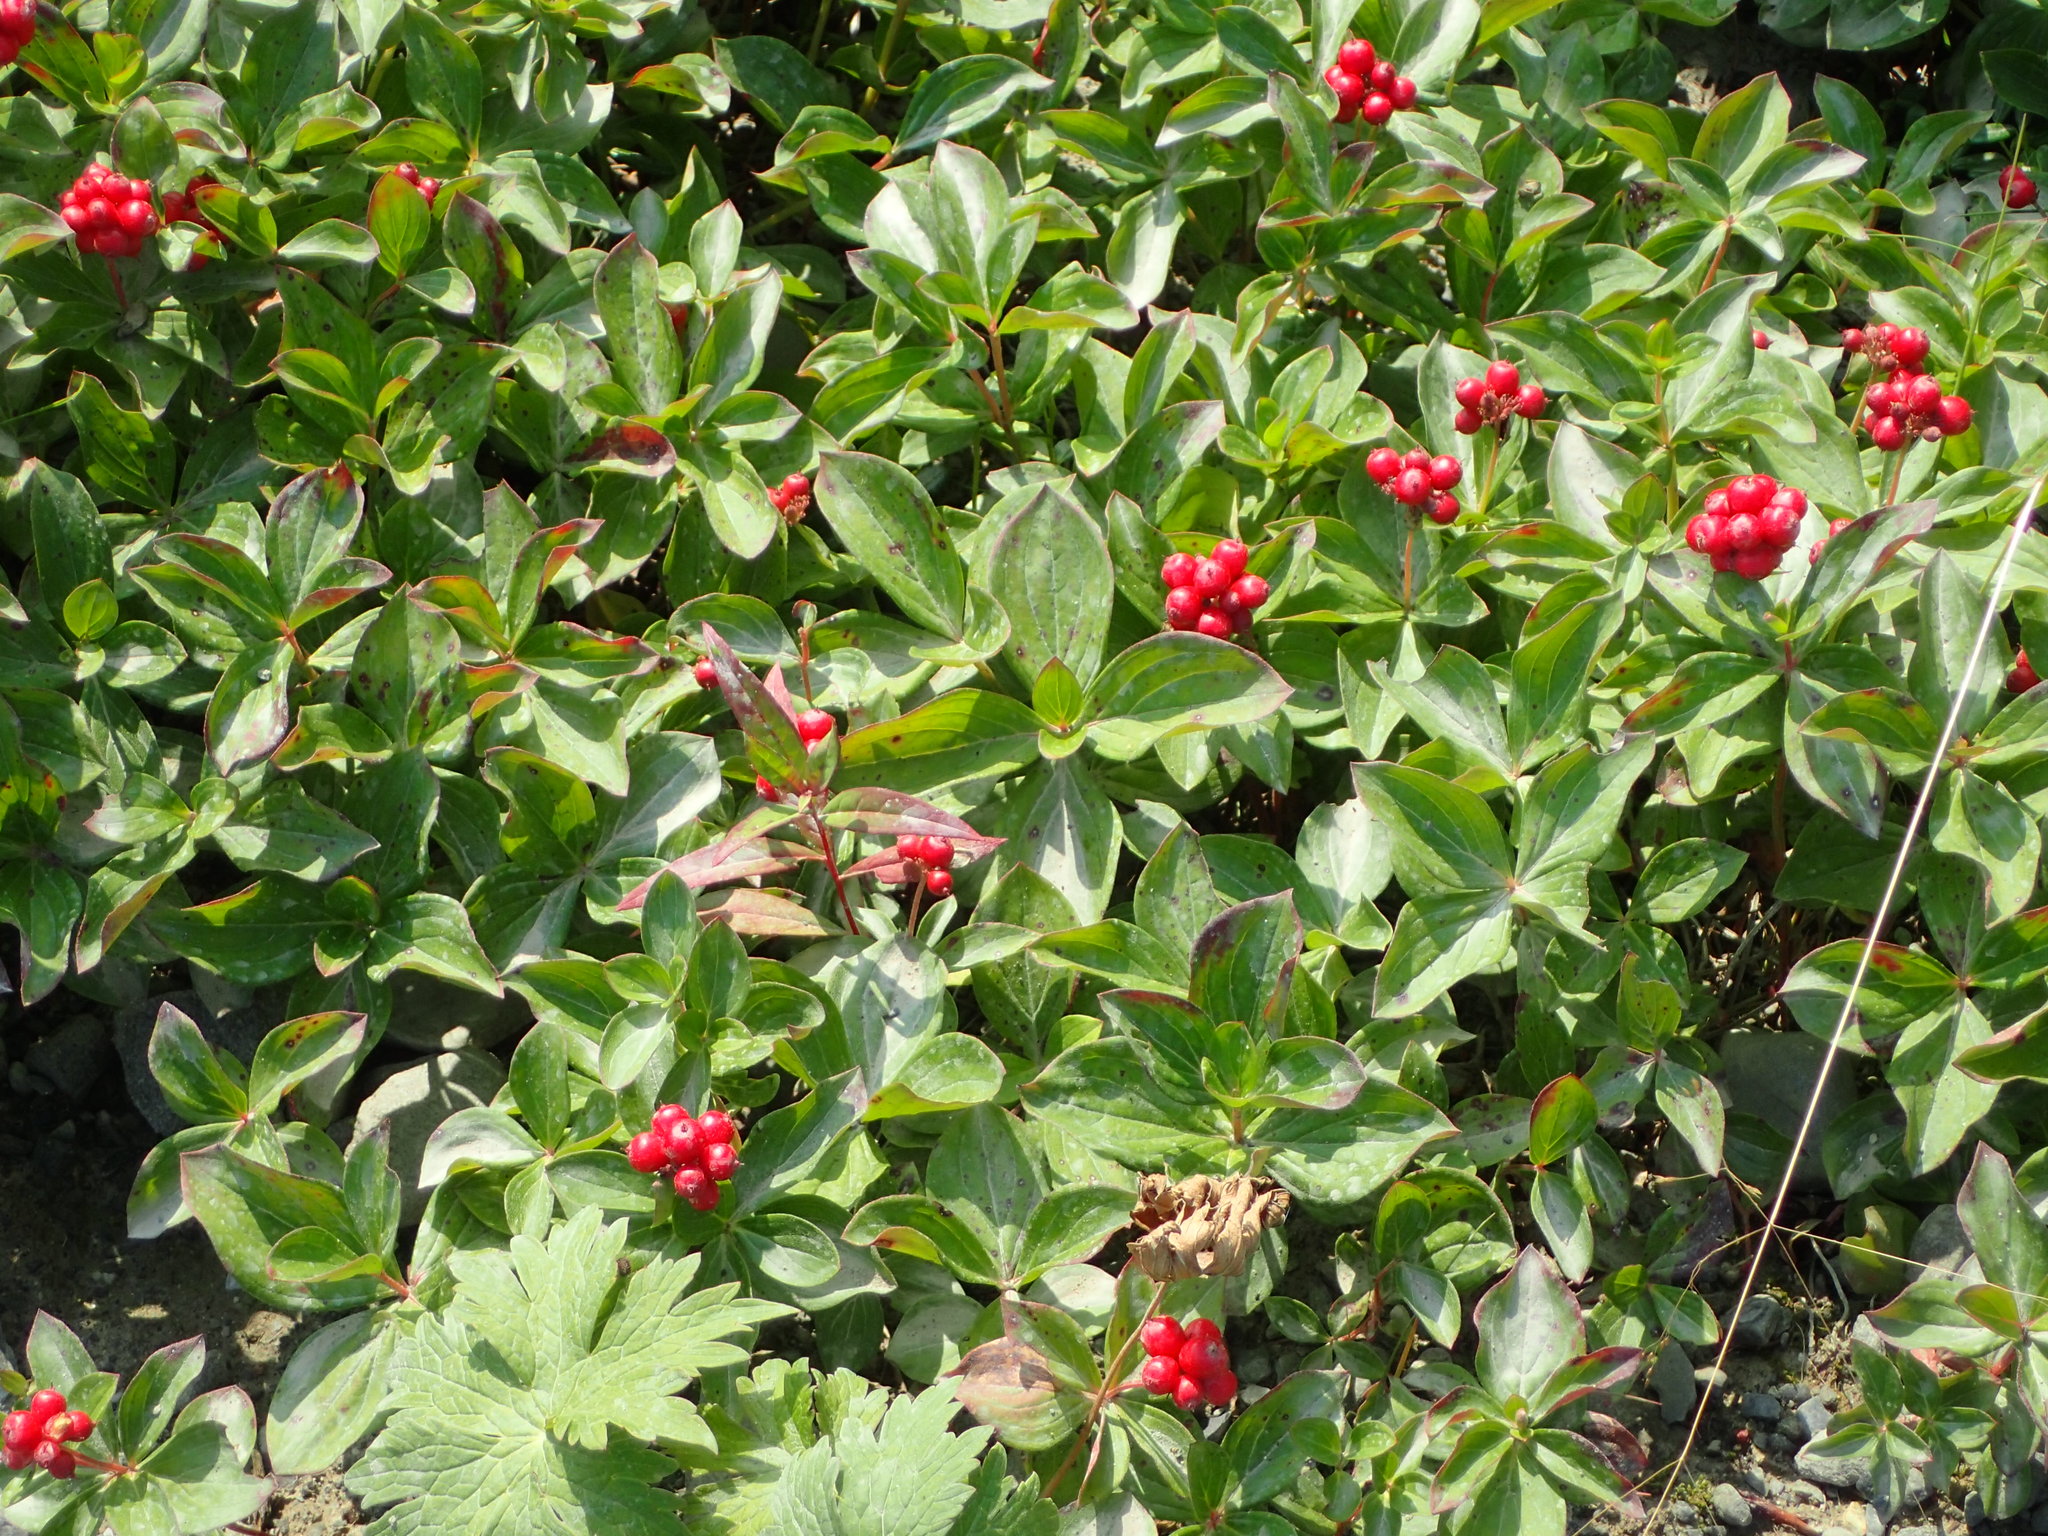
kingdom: Plantae
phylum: Tracheophyta
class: Magnoliopsida
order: Cornales
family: Cornaceae
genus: Cornus
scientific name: Cornus canadensis
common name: Creeping dogwood
